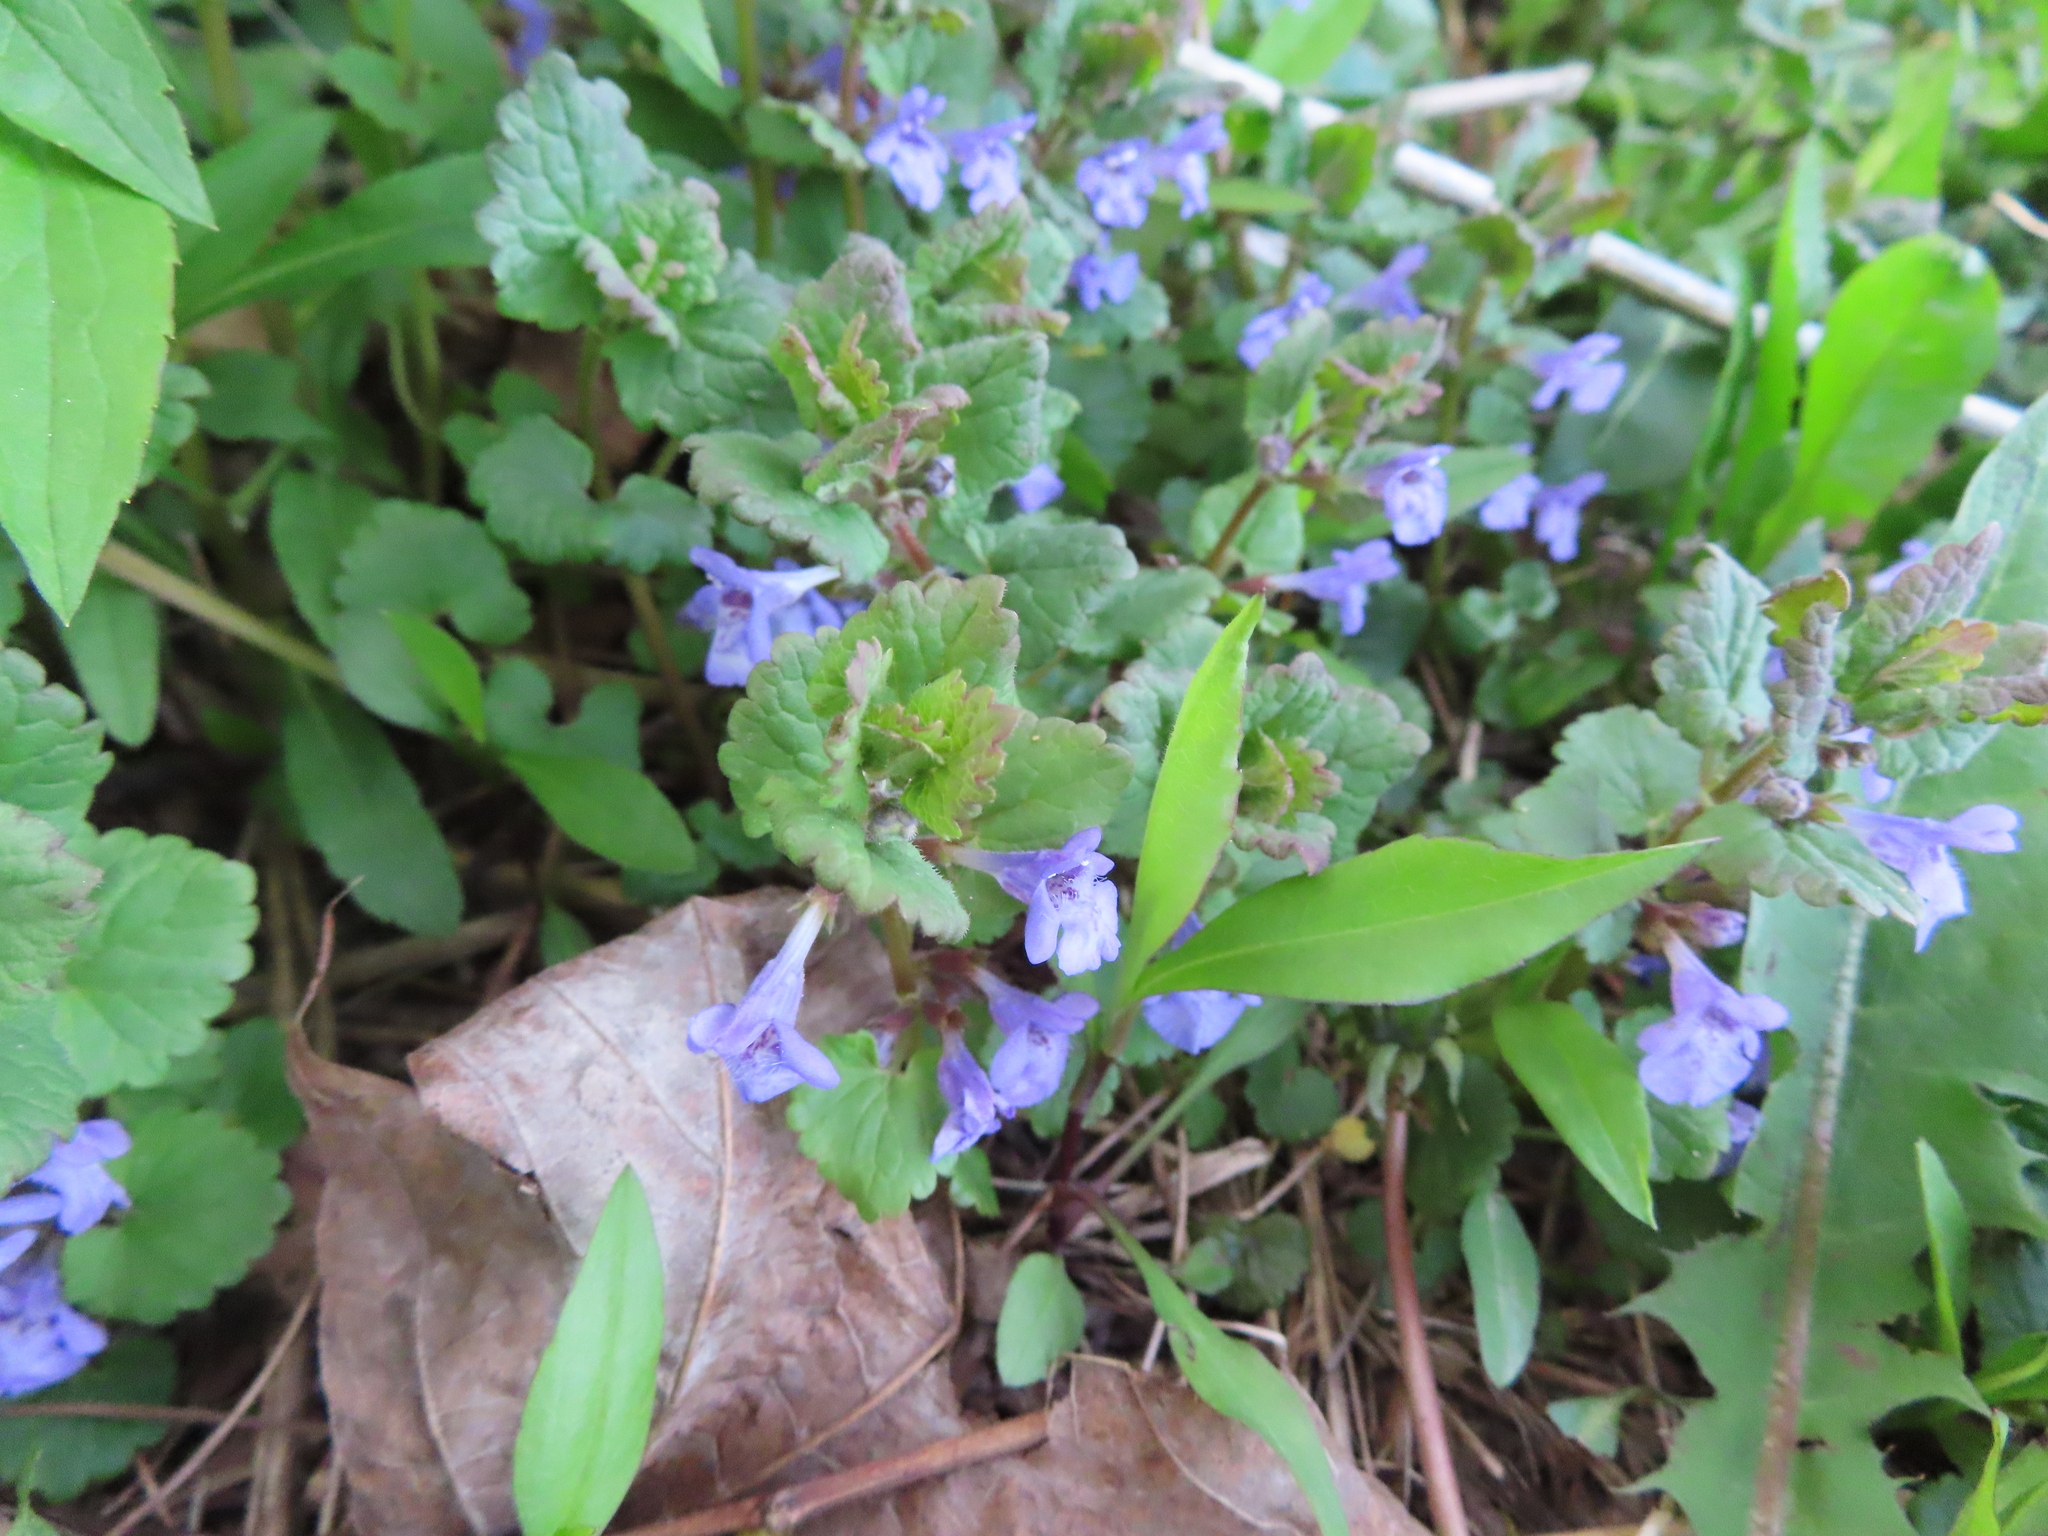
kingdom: Plantae
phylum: Tracheophyta
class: Magnoliopsida
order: Lamiales
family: Lamiaceae
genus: Glechoma
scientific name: Glechoma hederacea
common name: Ground ivy
